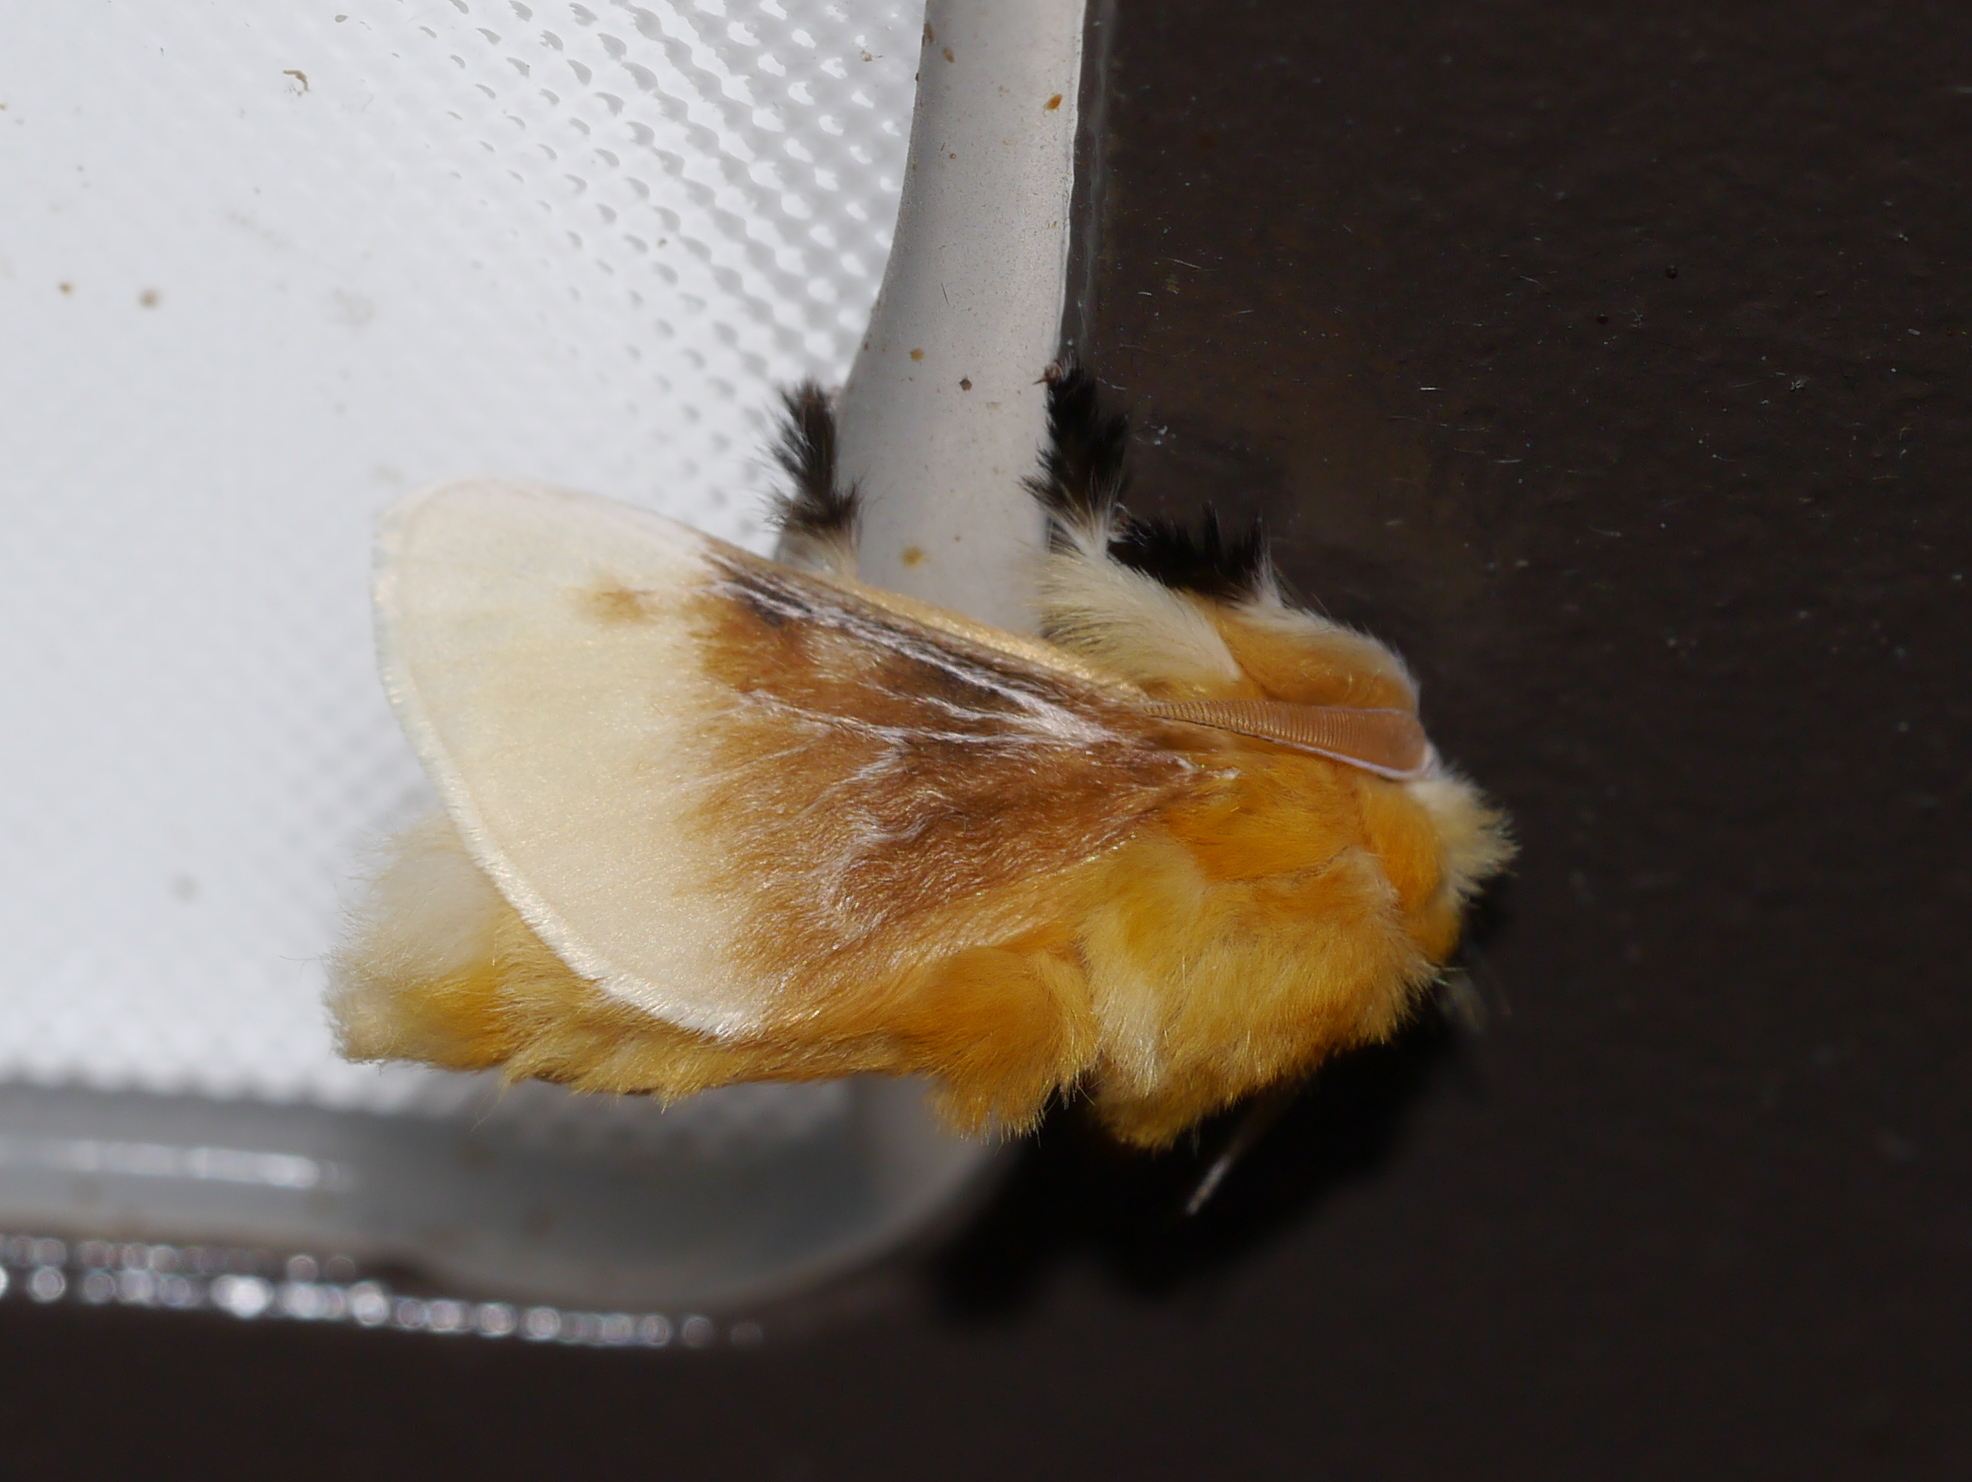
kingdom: Animalia
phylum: Arthropoda
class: Insecta
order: Lepidoptera
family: Megalopygidae
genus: Megalopyge
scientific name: Megalopyge opercularis
